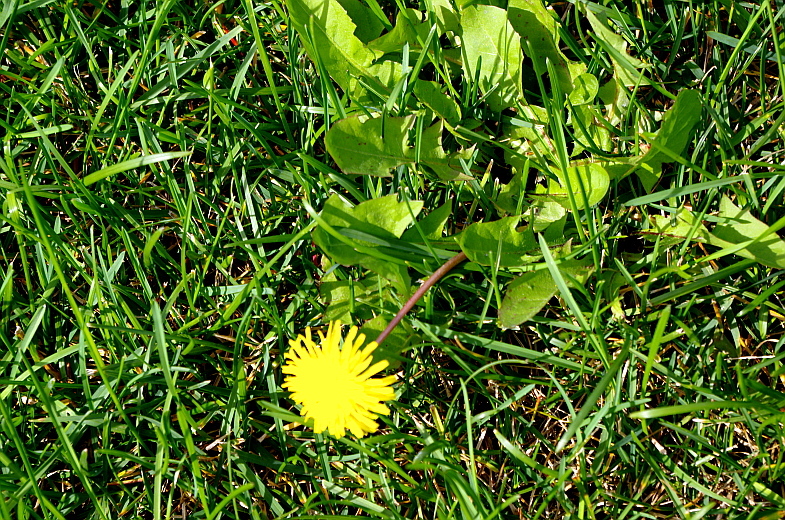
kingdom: Plantae
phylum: Tracheophyta
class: Magnoliopsida
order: Asterales
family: Asteraceae
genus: Taraxacum
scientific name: Taraxacum officinale
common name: Common dandelion
